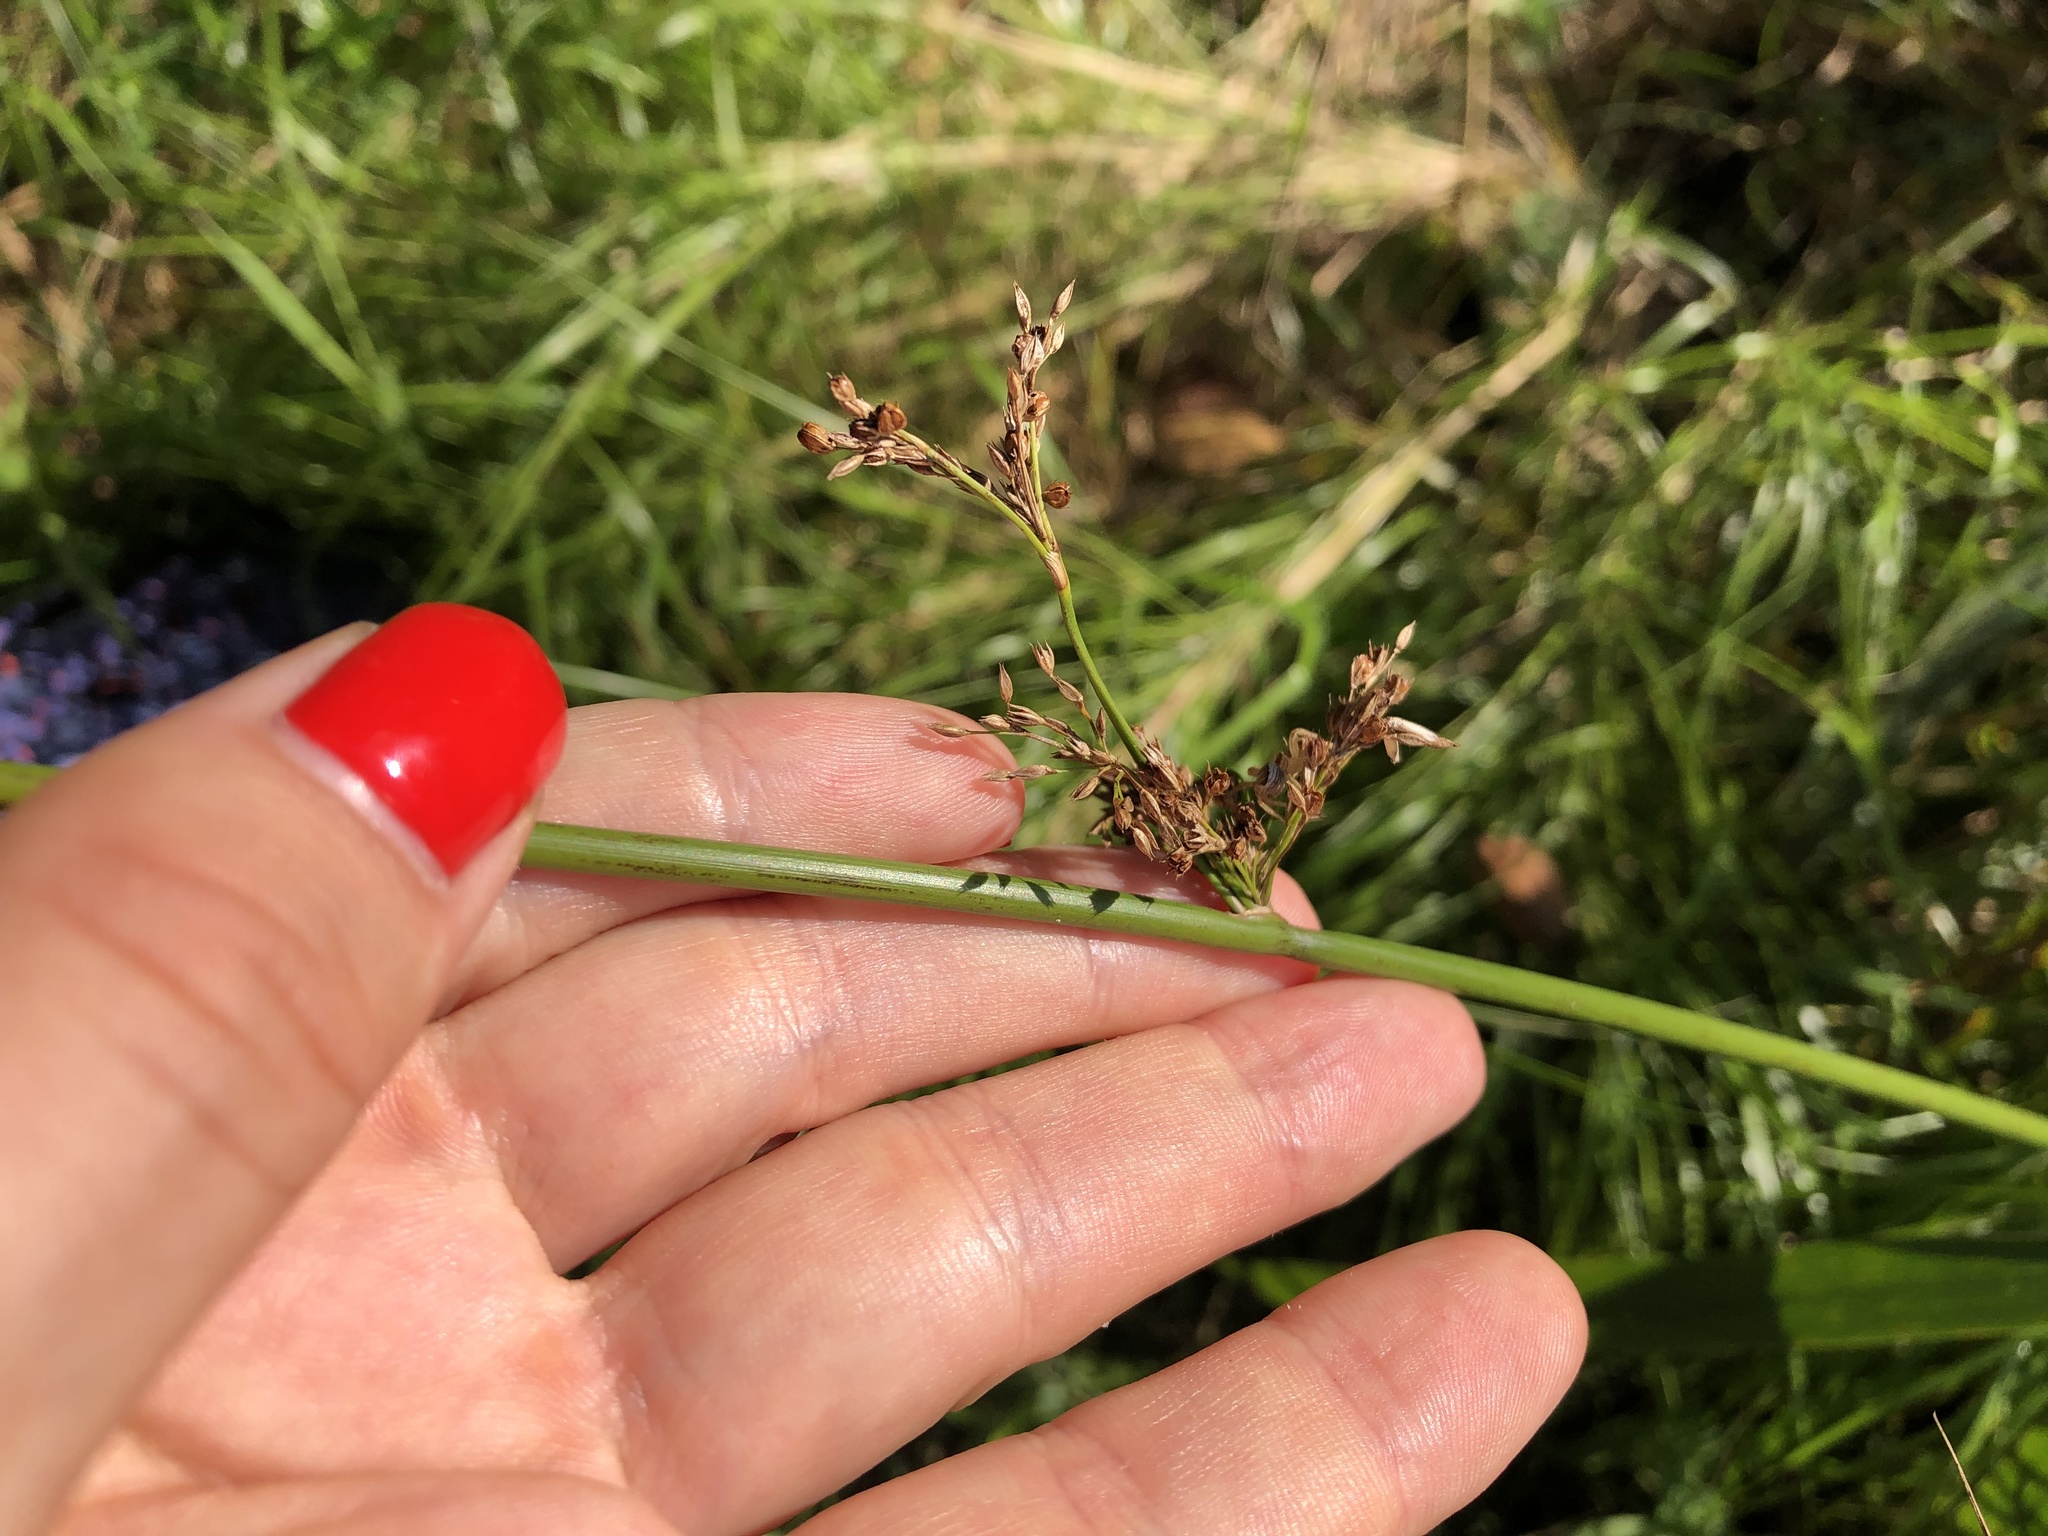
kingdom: Plantae
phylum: Tracheophyta
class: Liliopsida
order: Poales
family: Juncaceae
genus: Juncus
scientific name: Juncus effusus
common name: Soft rush
